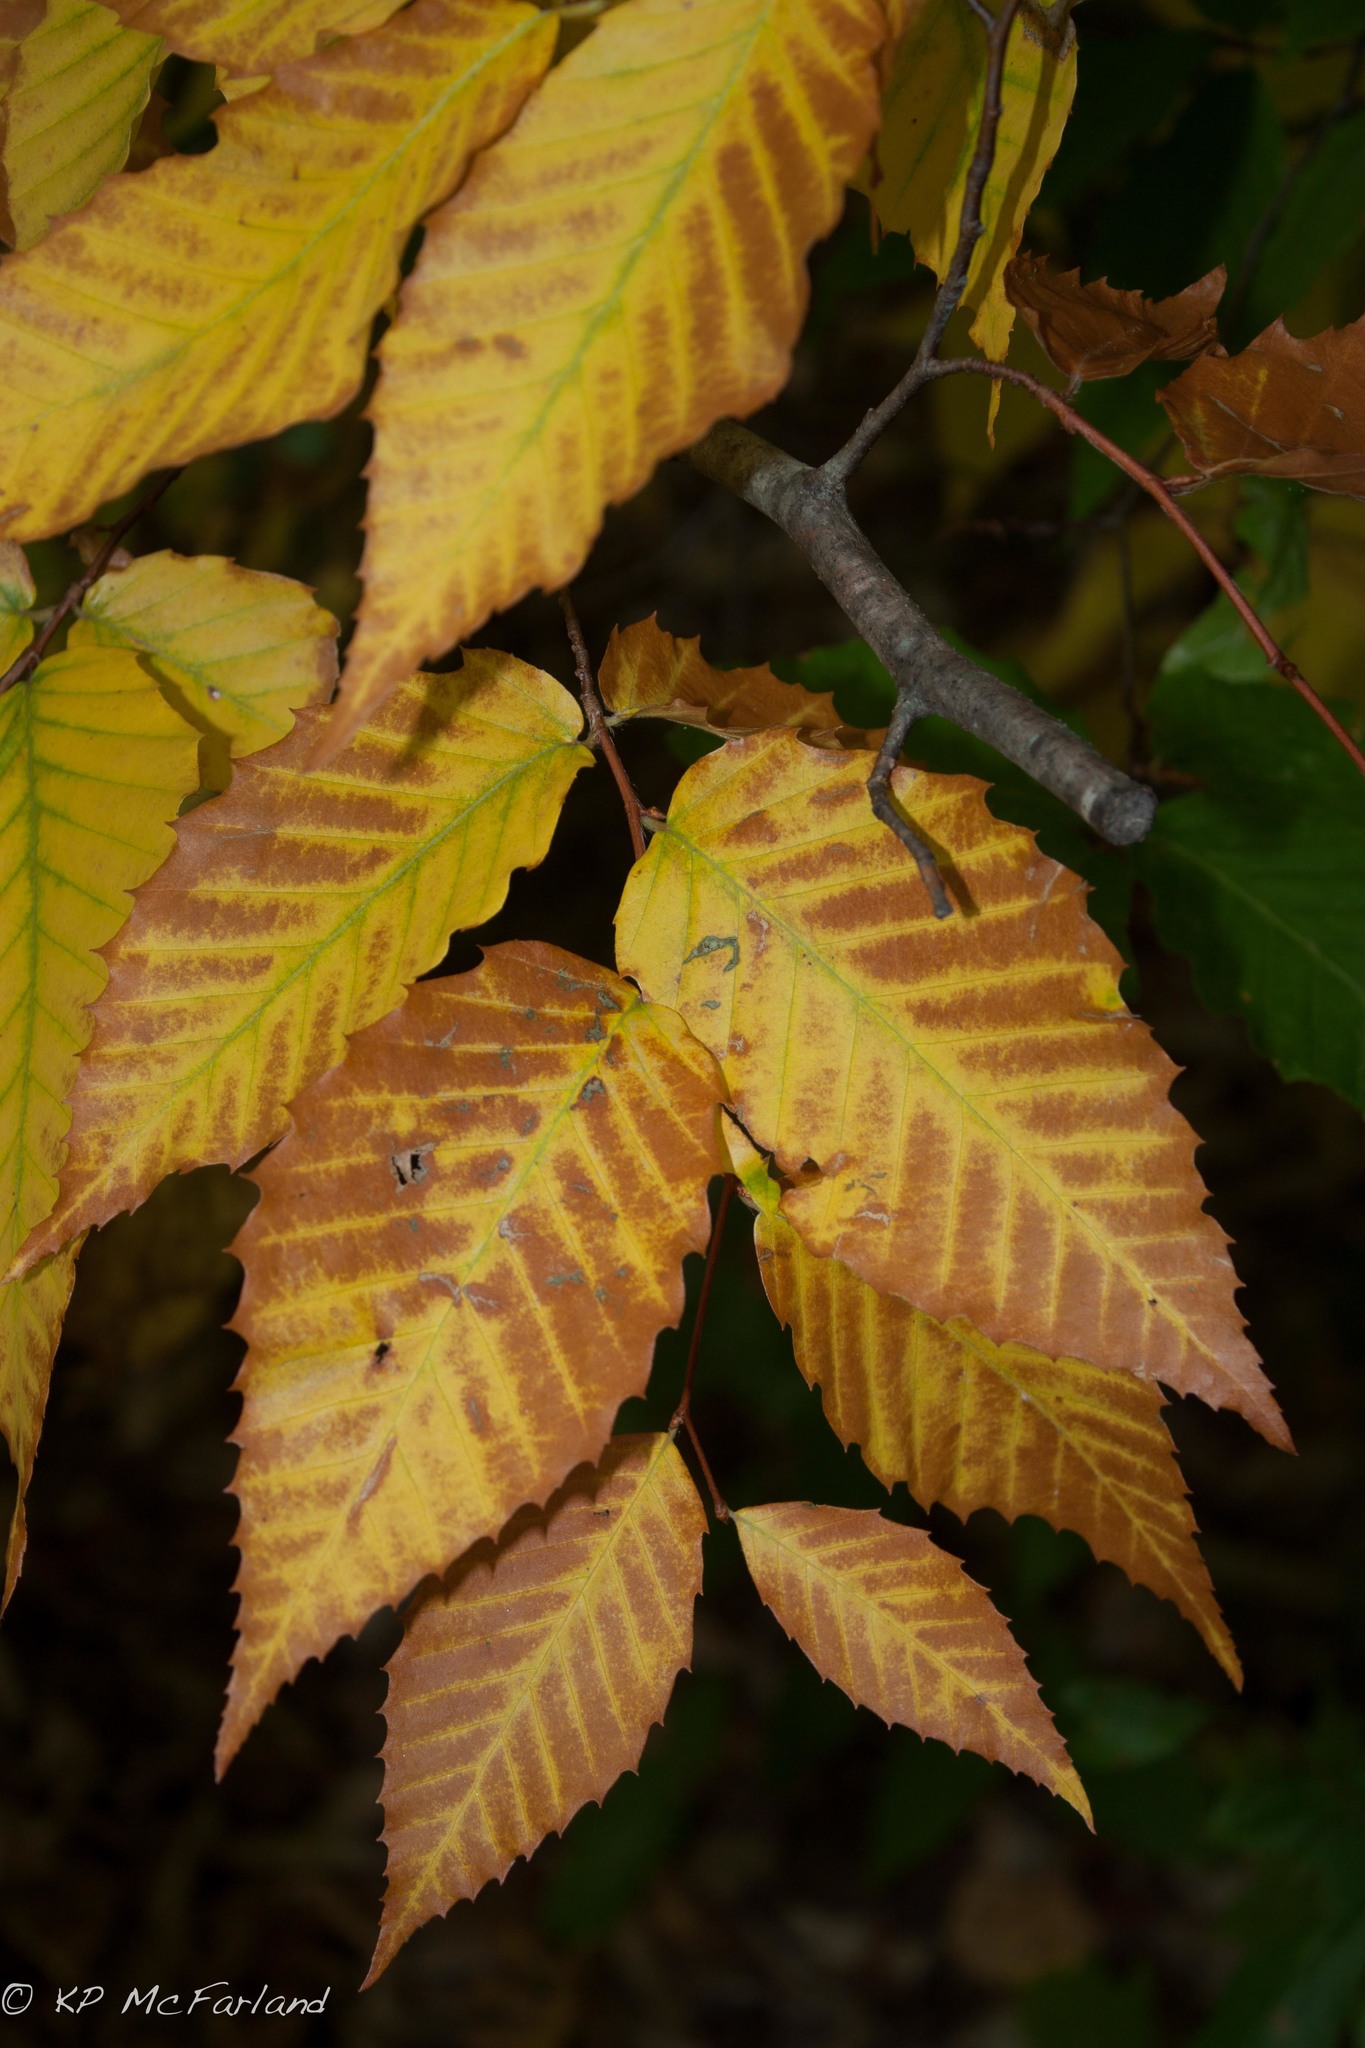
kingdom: Plantae
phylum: Tracheophyta
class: Magnoliopsida
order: Fagales
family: Fagaceae
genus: Fagus
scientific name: Fagus grandifolia
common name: American beech
